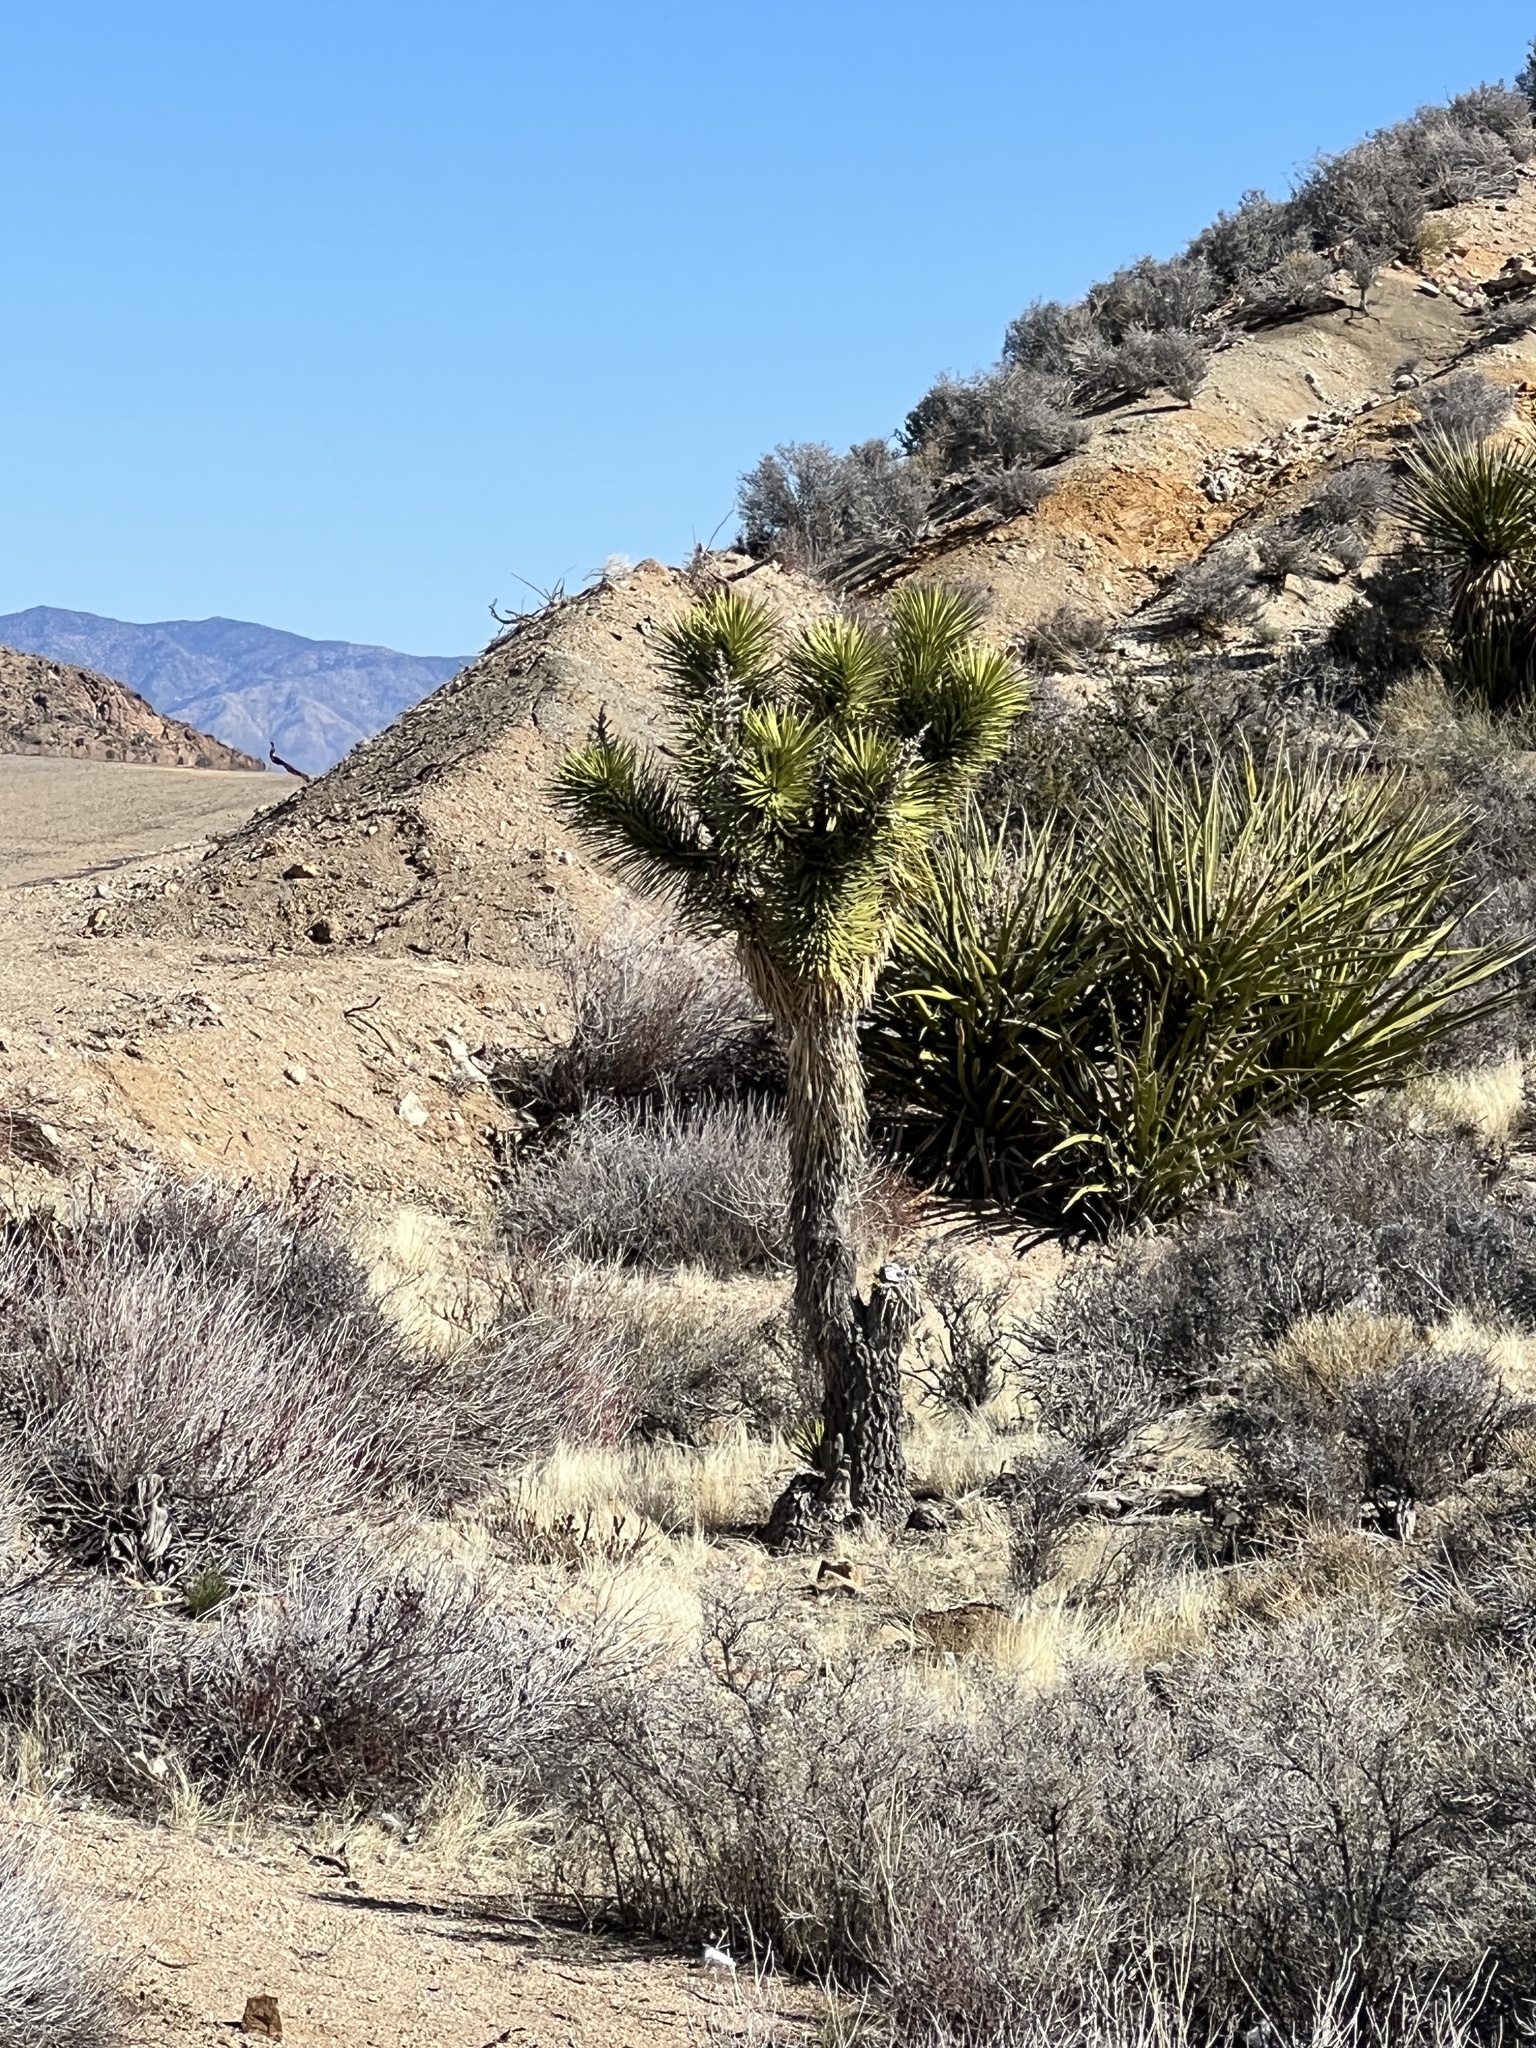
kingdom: Plantae
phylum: Tracheophyta
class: Liliopsida
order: Asparagales
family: Asparagaceae
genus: Yucca
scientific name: Yucca brevifolia
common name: Joshua tree
